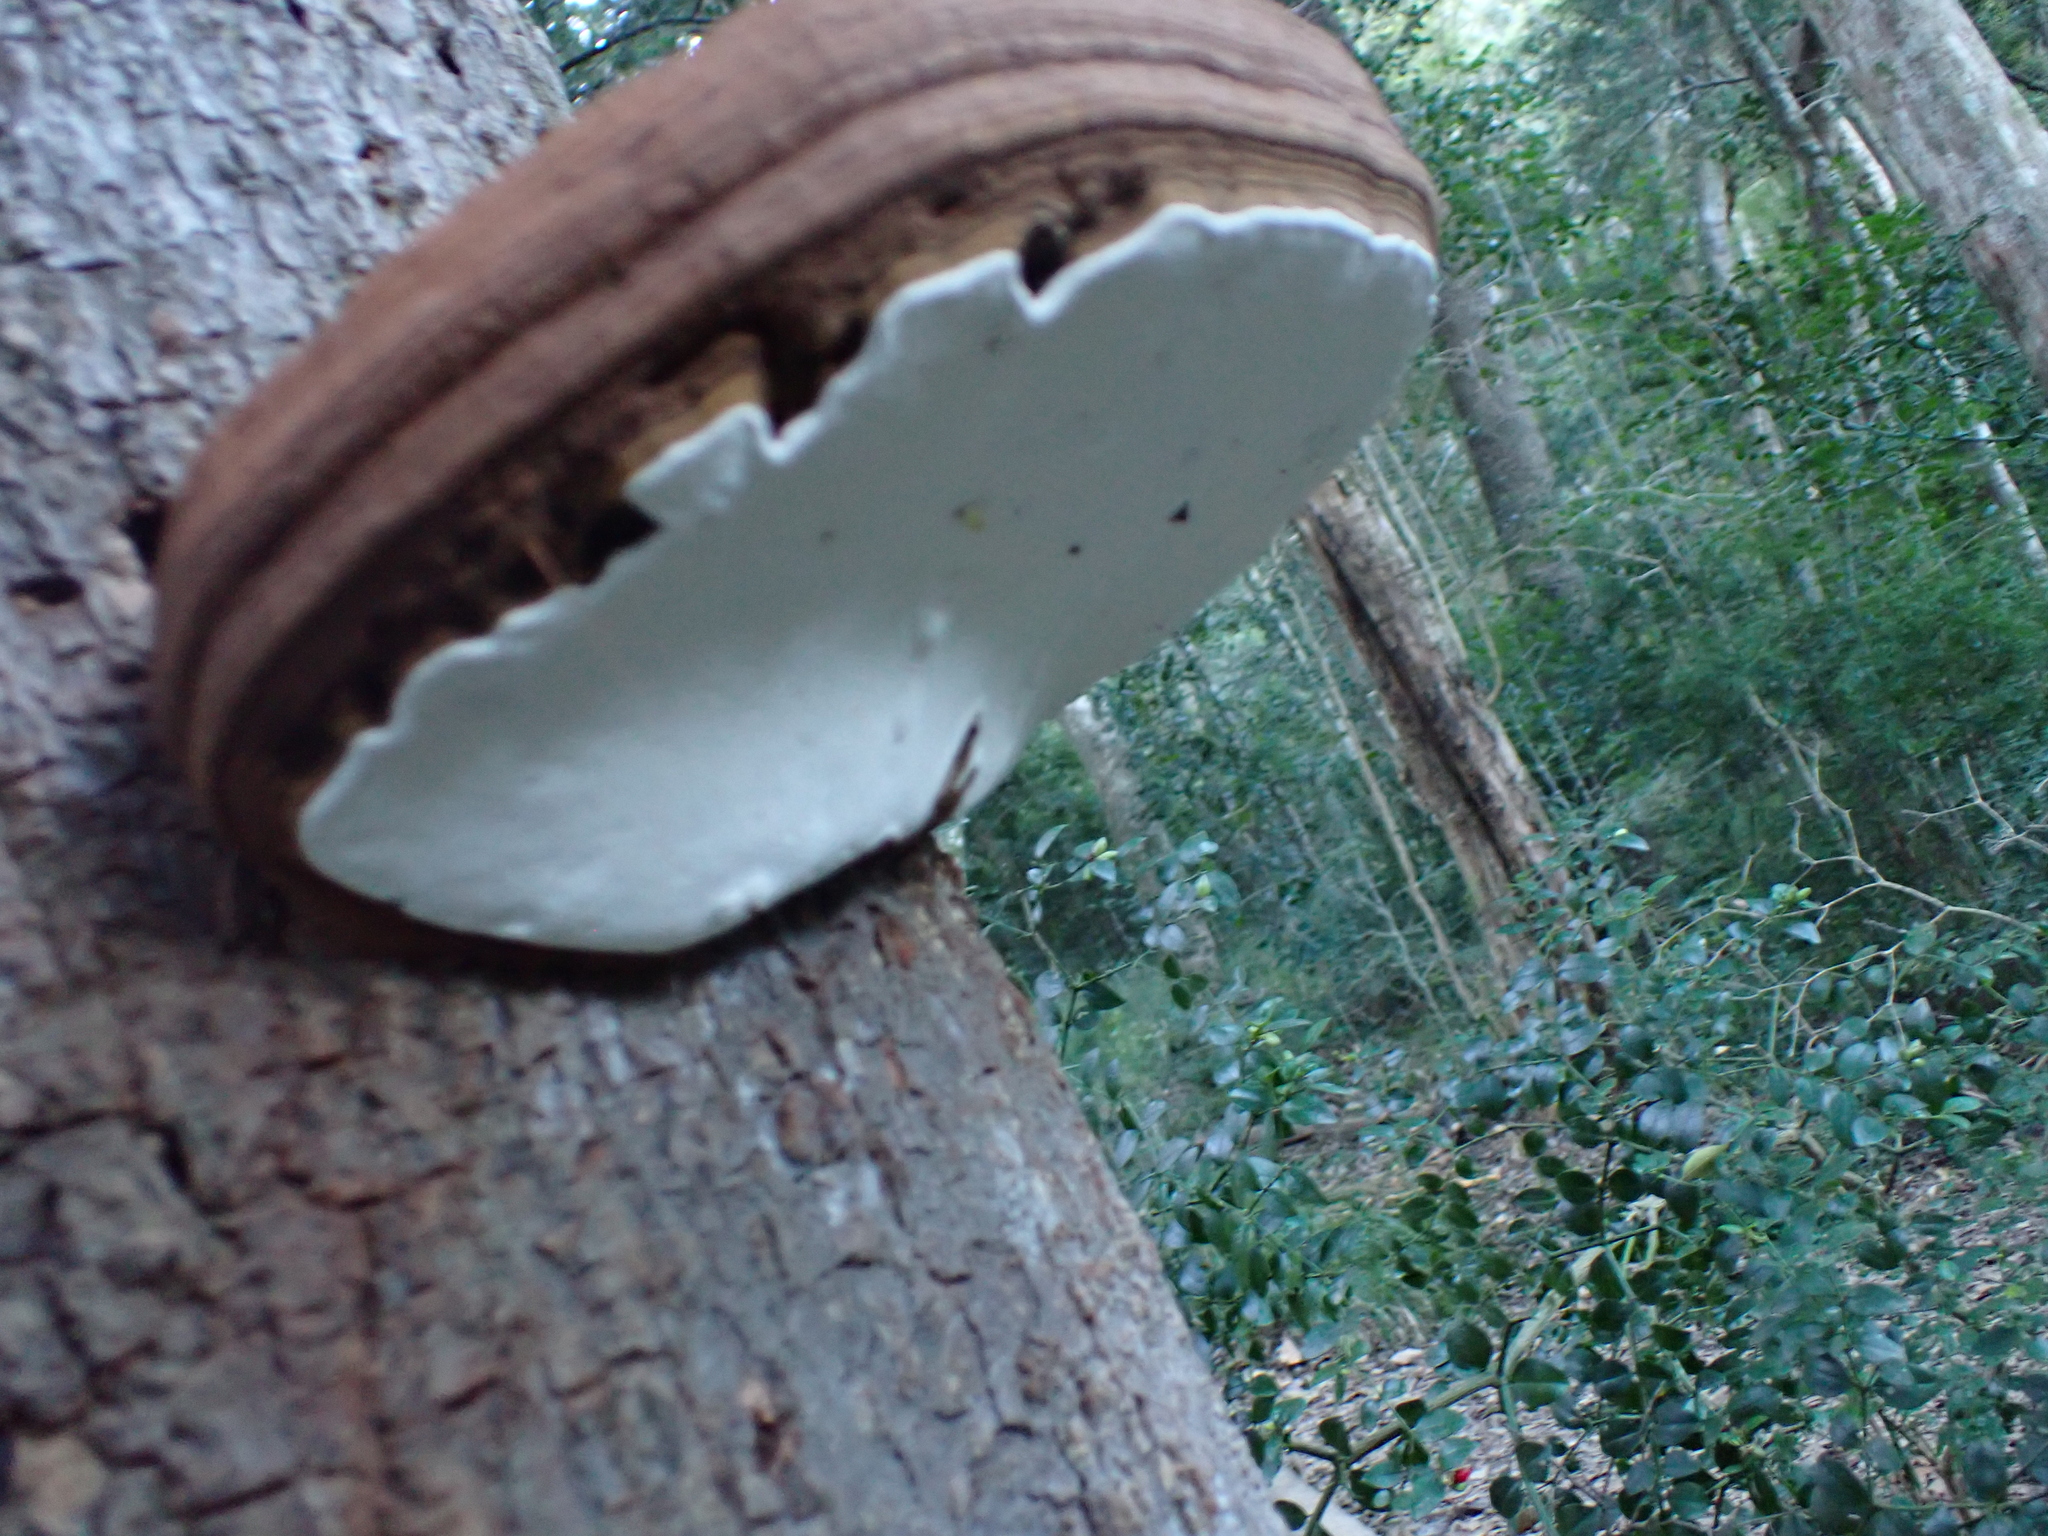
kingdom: Fungi
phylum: Basidiomycota
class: Agaricomycetes
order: Polyporales
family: Polyporaceae
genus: Ganoderma
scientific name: Ganoderma applanatum
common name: Artist's bracket
